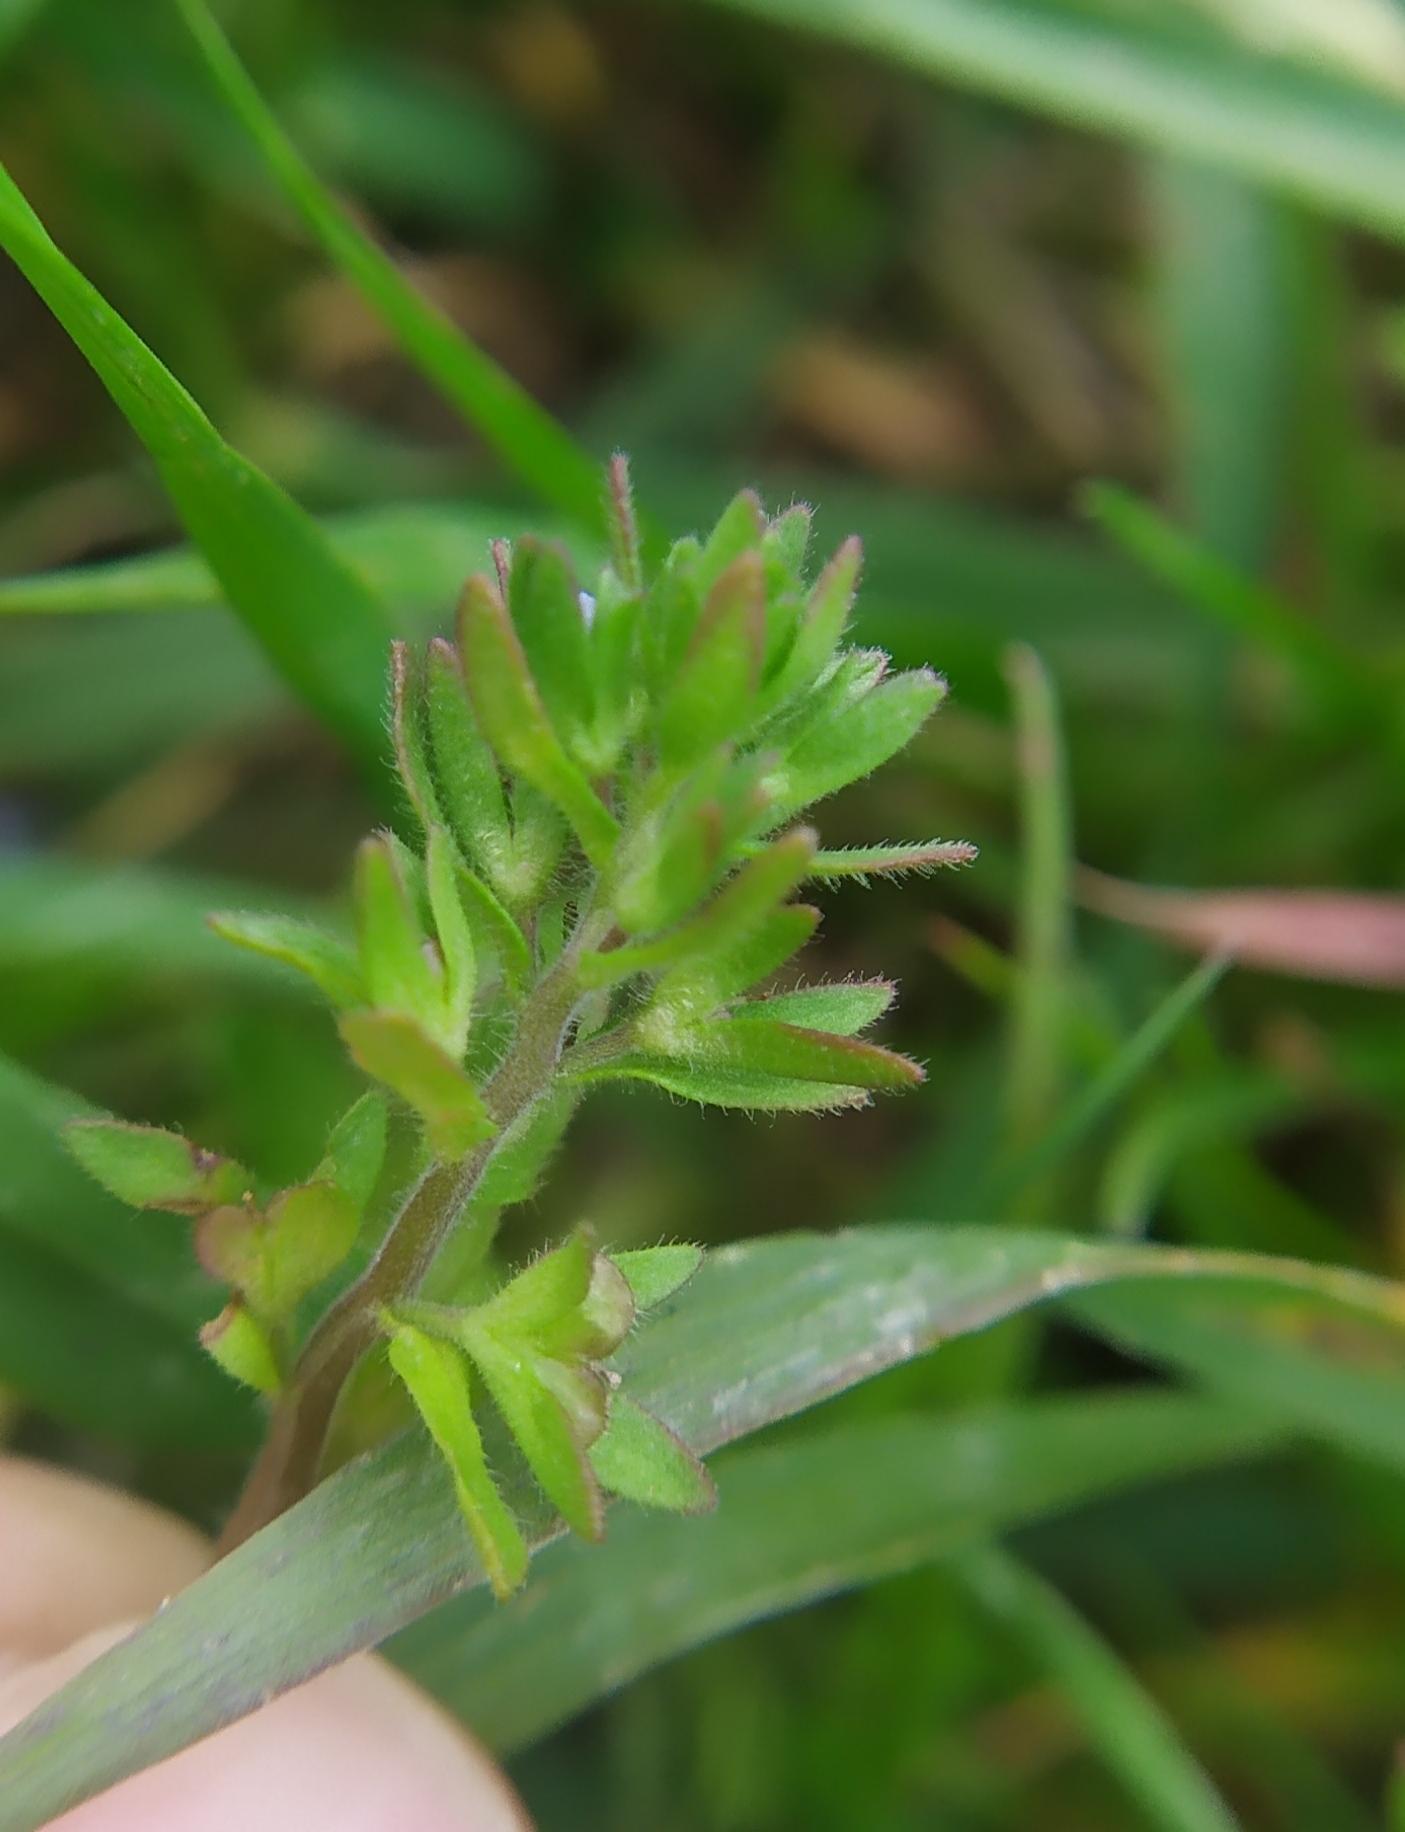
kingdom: Plantae
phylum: Tracheophyta
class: Magnoliopsida
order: Lamiales
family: Plantaginaceae
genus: Veronica
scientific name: Veronica arvensis
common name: Corn speedwell
